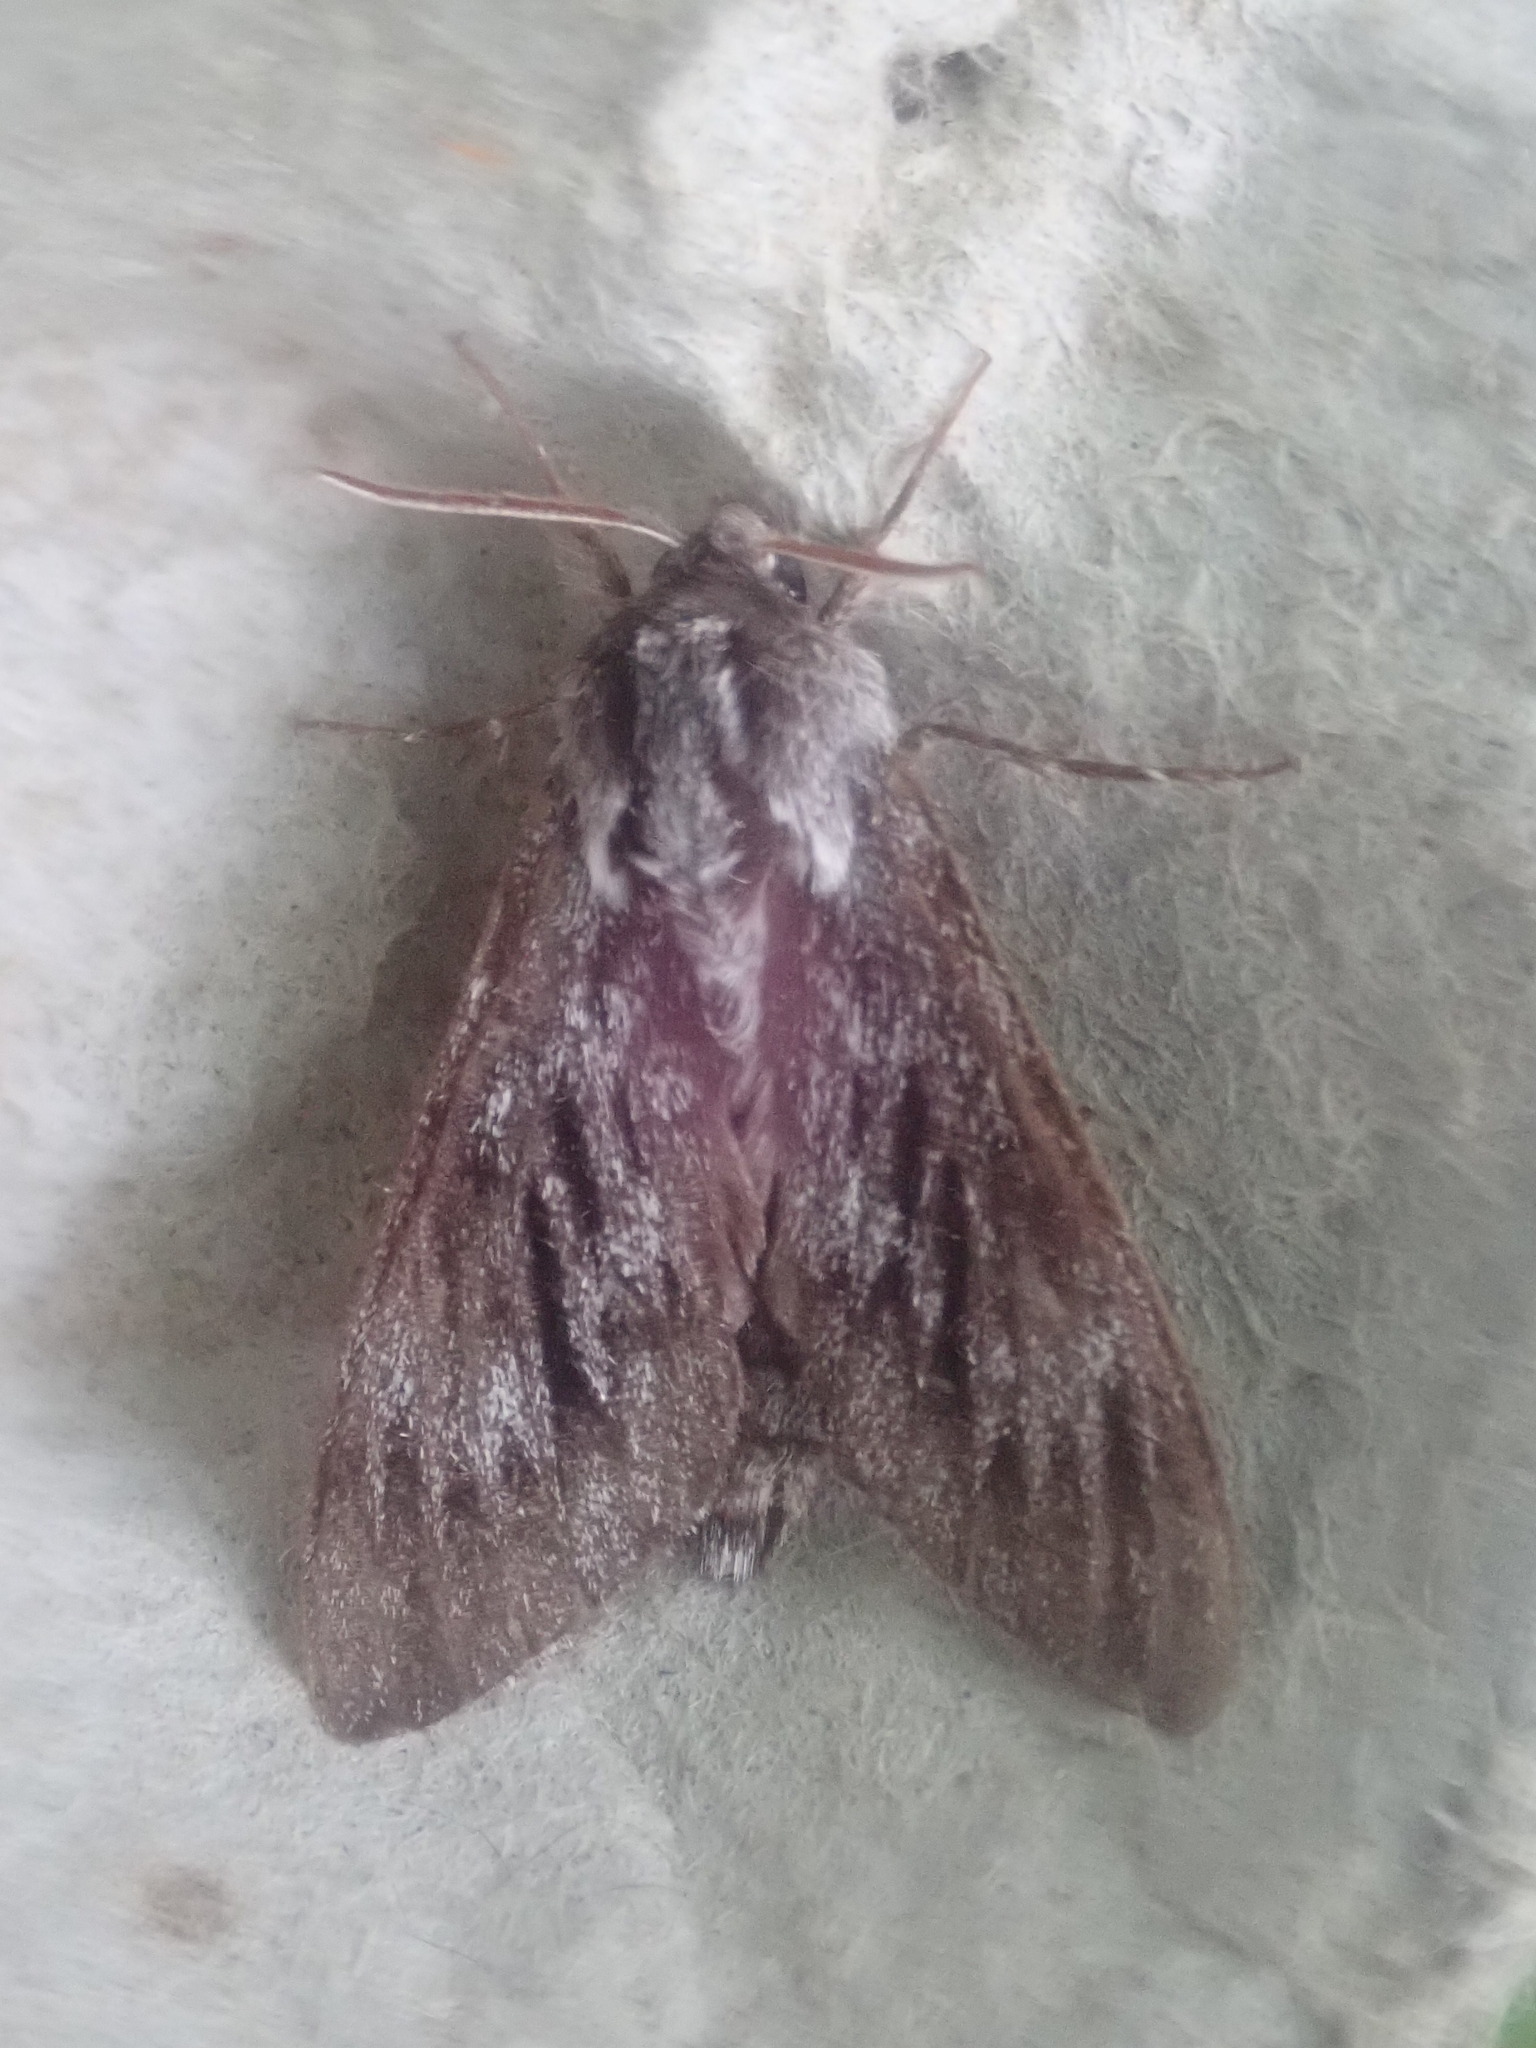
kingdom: Animalia
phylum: Arthropoda
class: Insecta
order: Lepidoptera
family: Sphingidae
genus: Lapara
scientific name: Lapara bombycoides
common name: Northern pine sphinx
